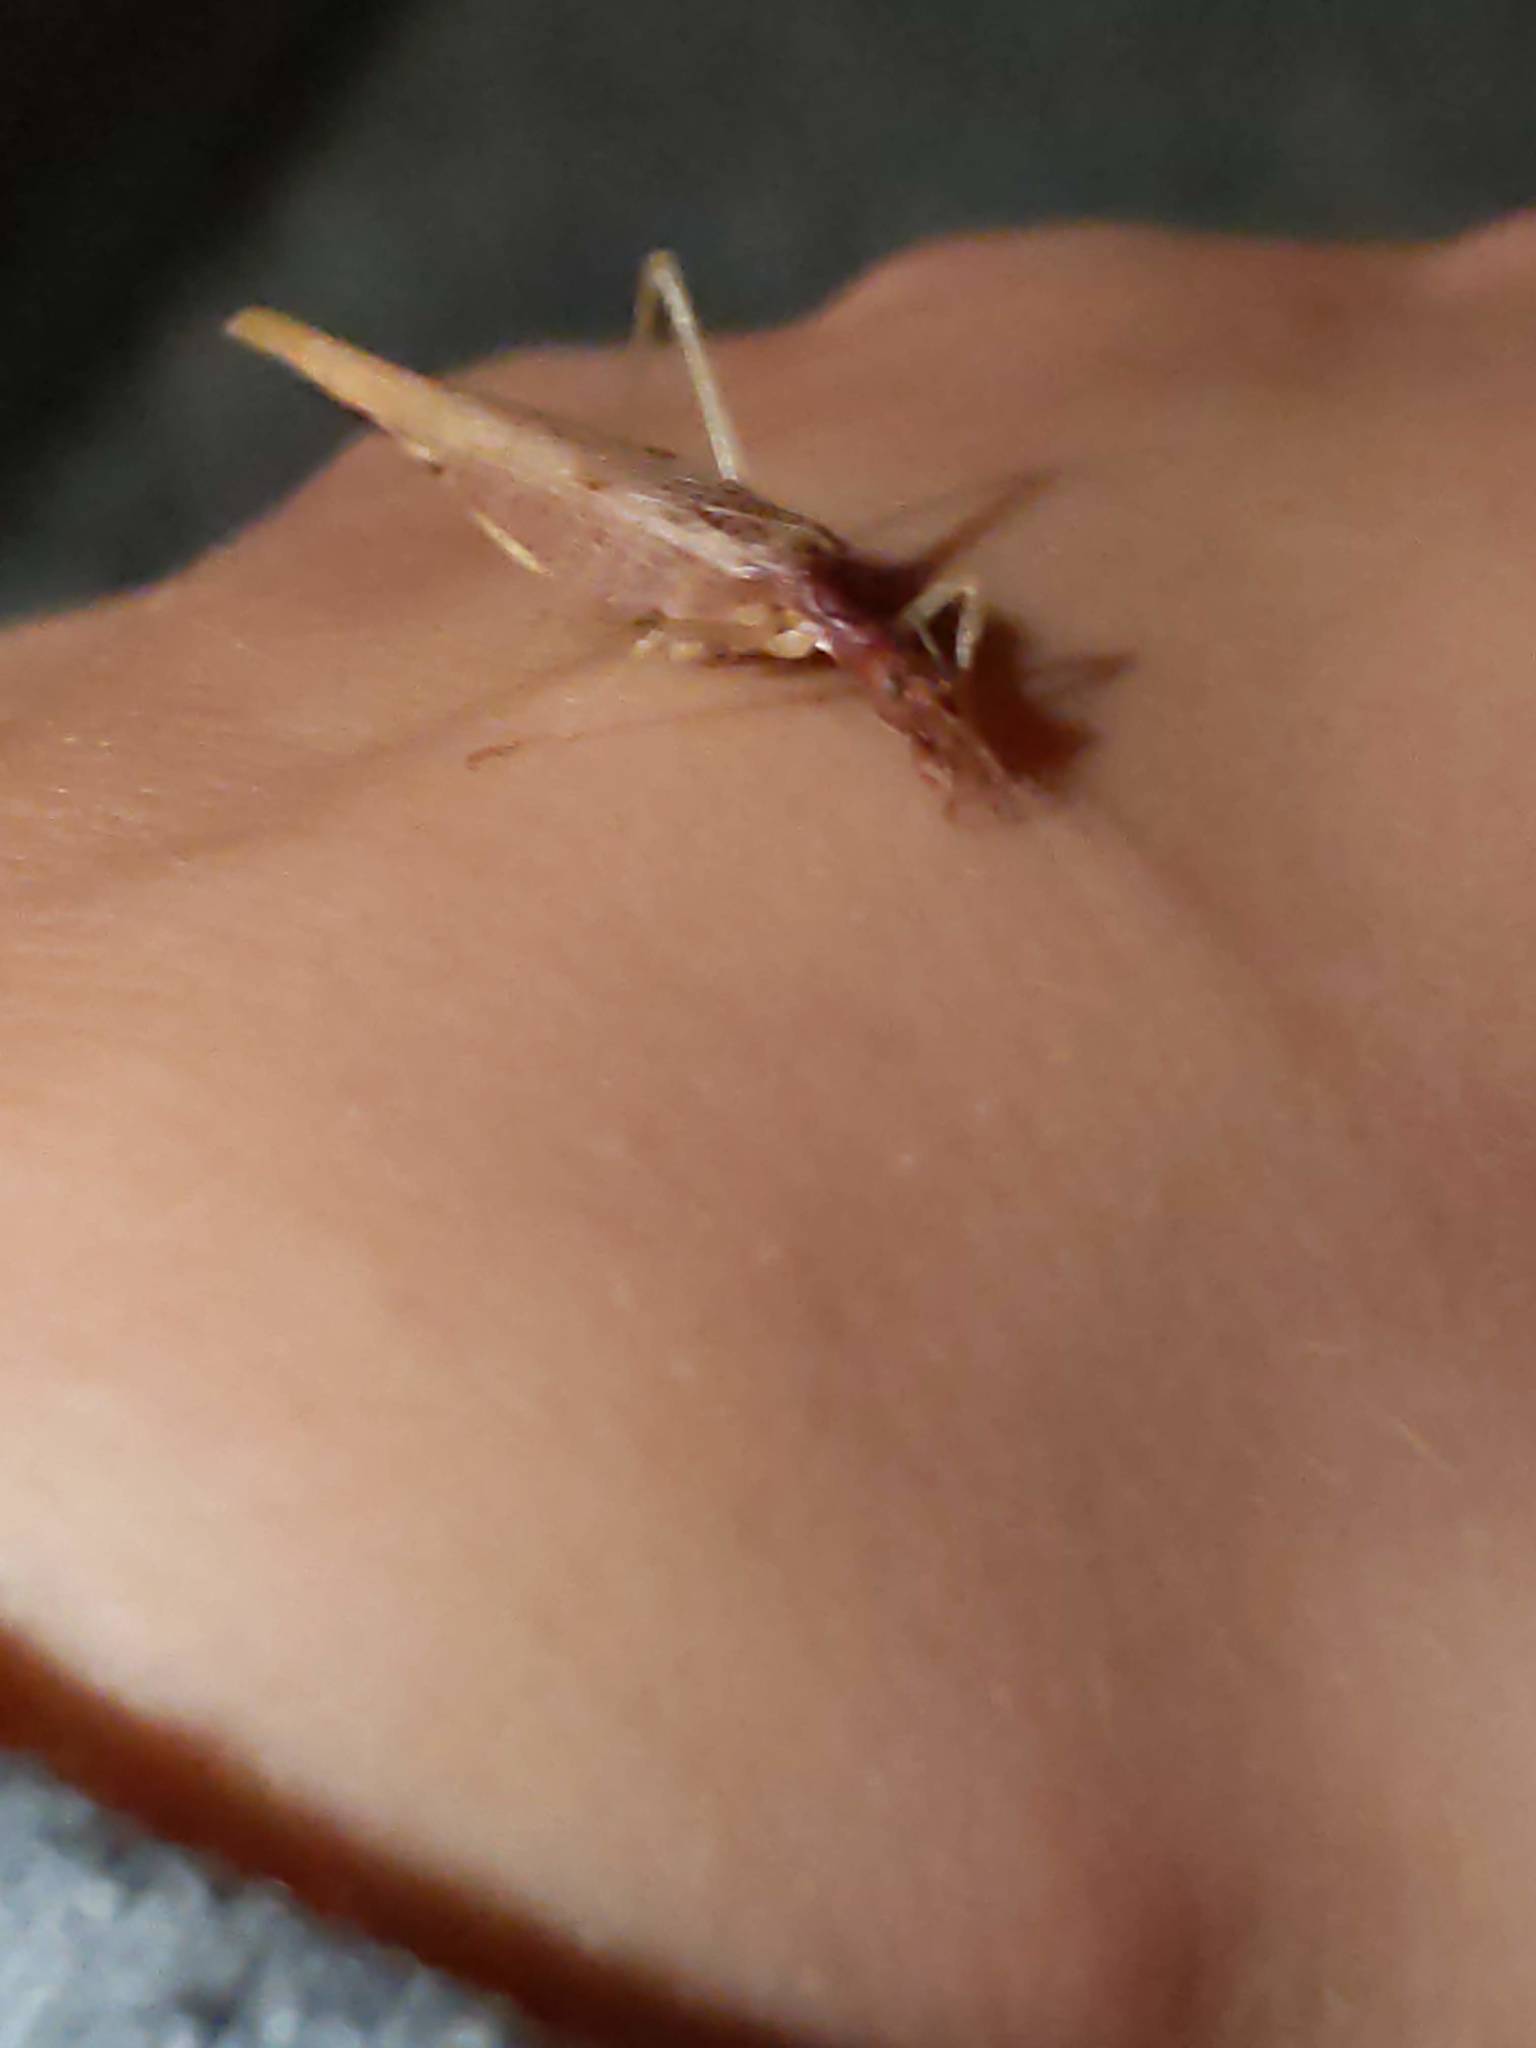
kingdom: Animalia
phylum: Arthropoda
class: Insecta
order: Orthoptera
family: Gryllidae
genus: Neoxabea
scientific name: Neoxabea bipunctata
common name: Two-spotted tree cricket
